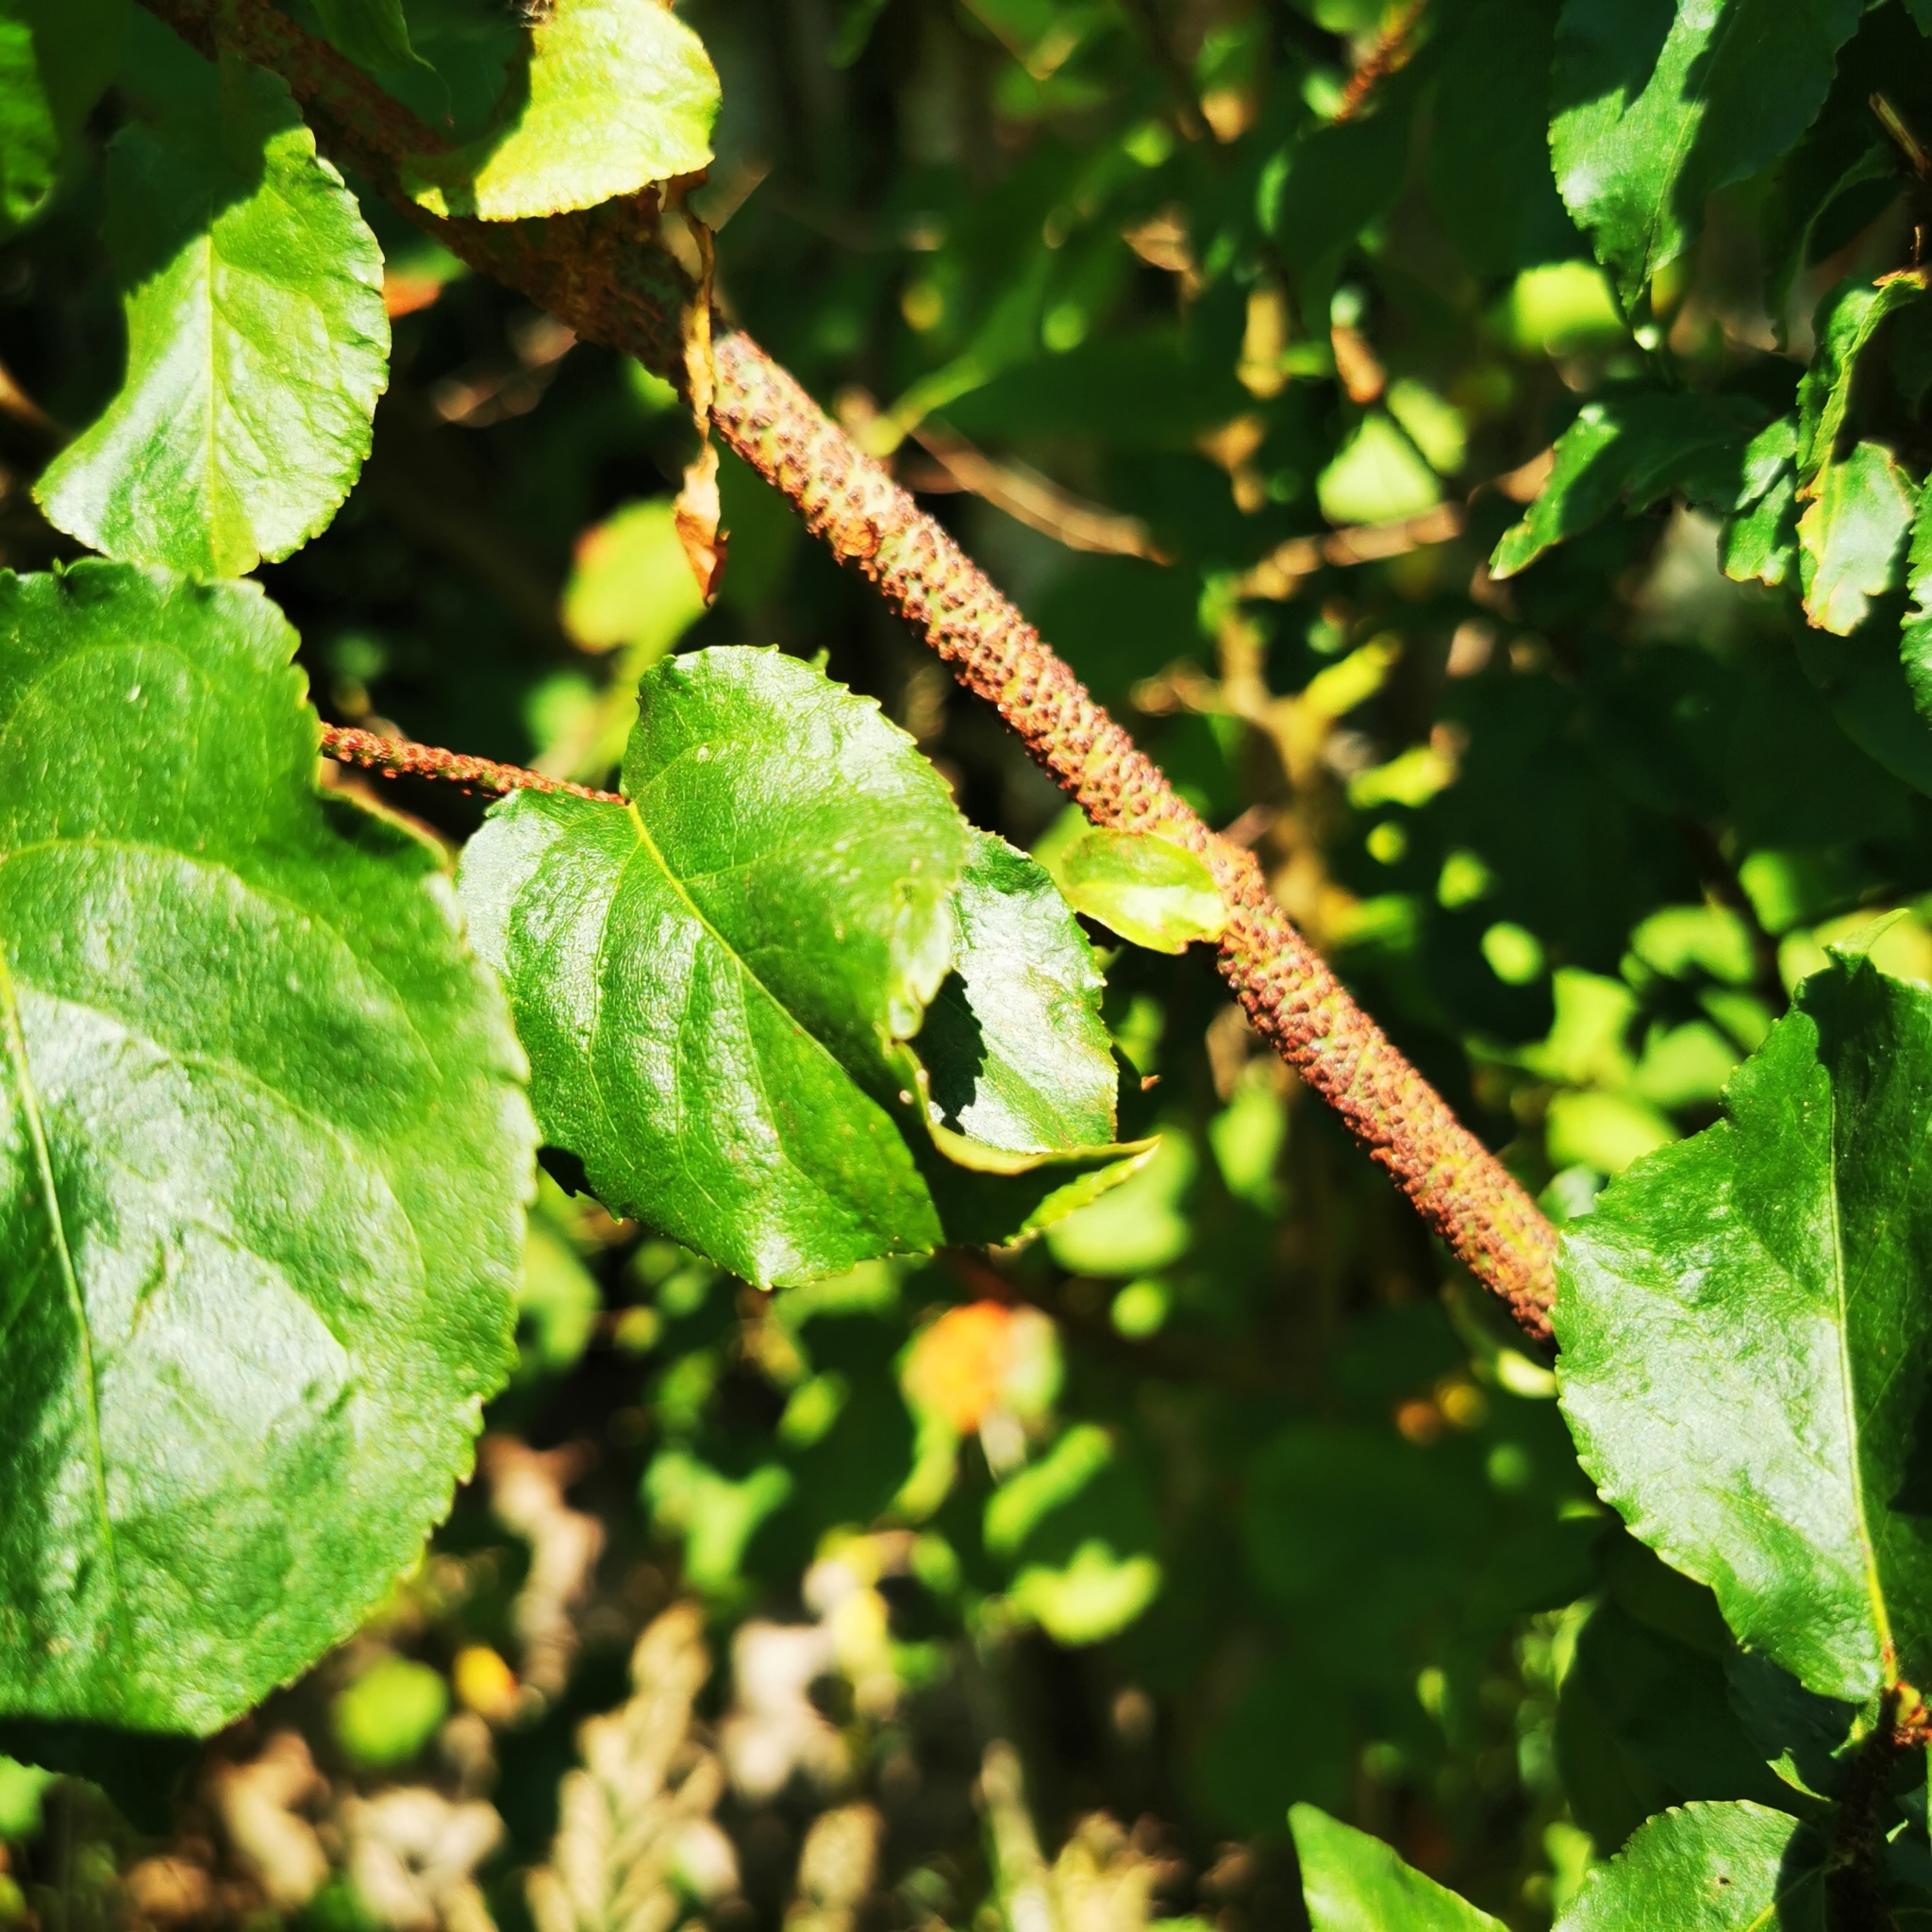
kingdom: Plantae
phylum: Tracheophyta
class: Magnoliopsida
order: Celastrales
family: Celastraceae
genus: Euonymus
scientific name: Euonymus verrucosus
